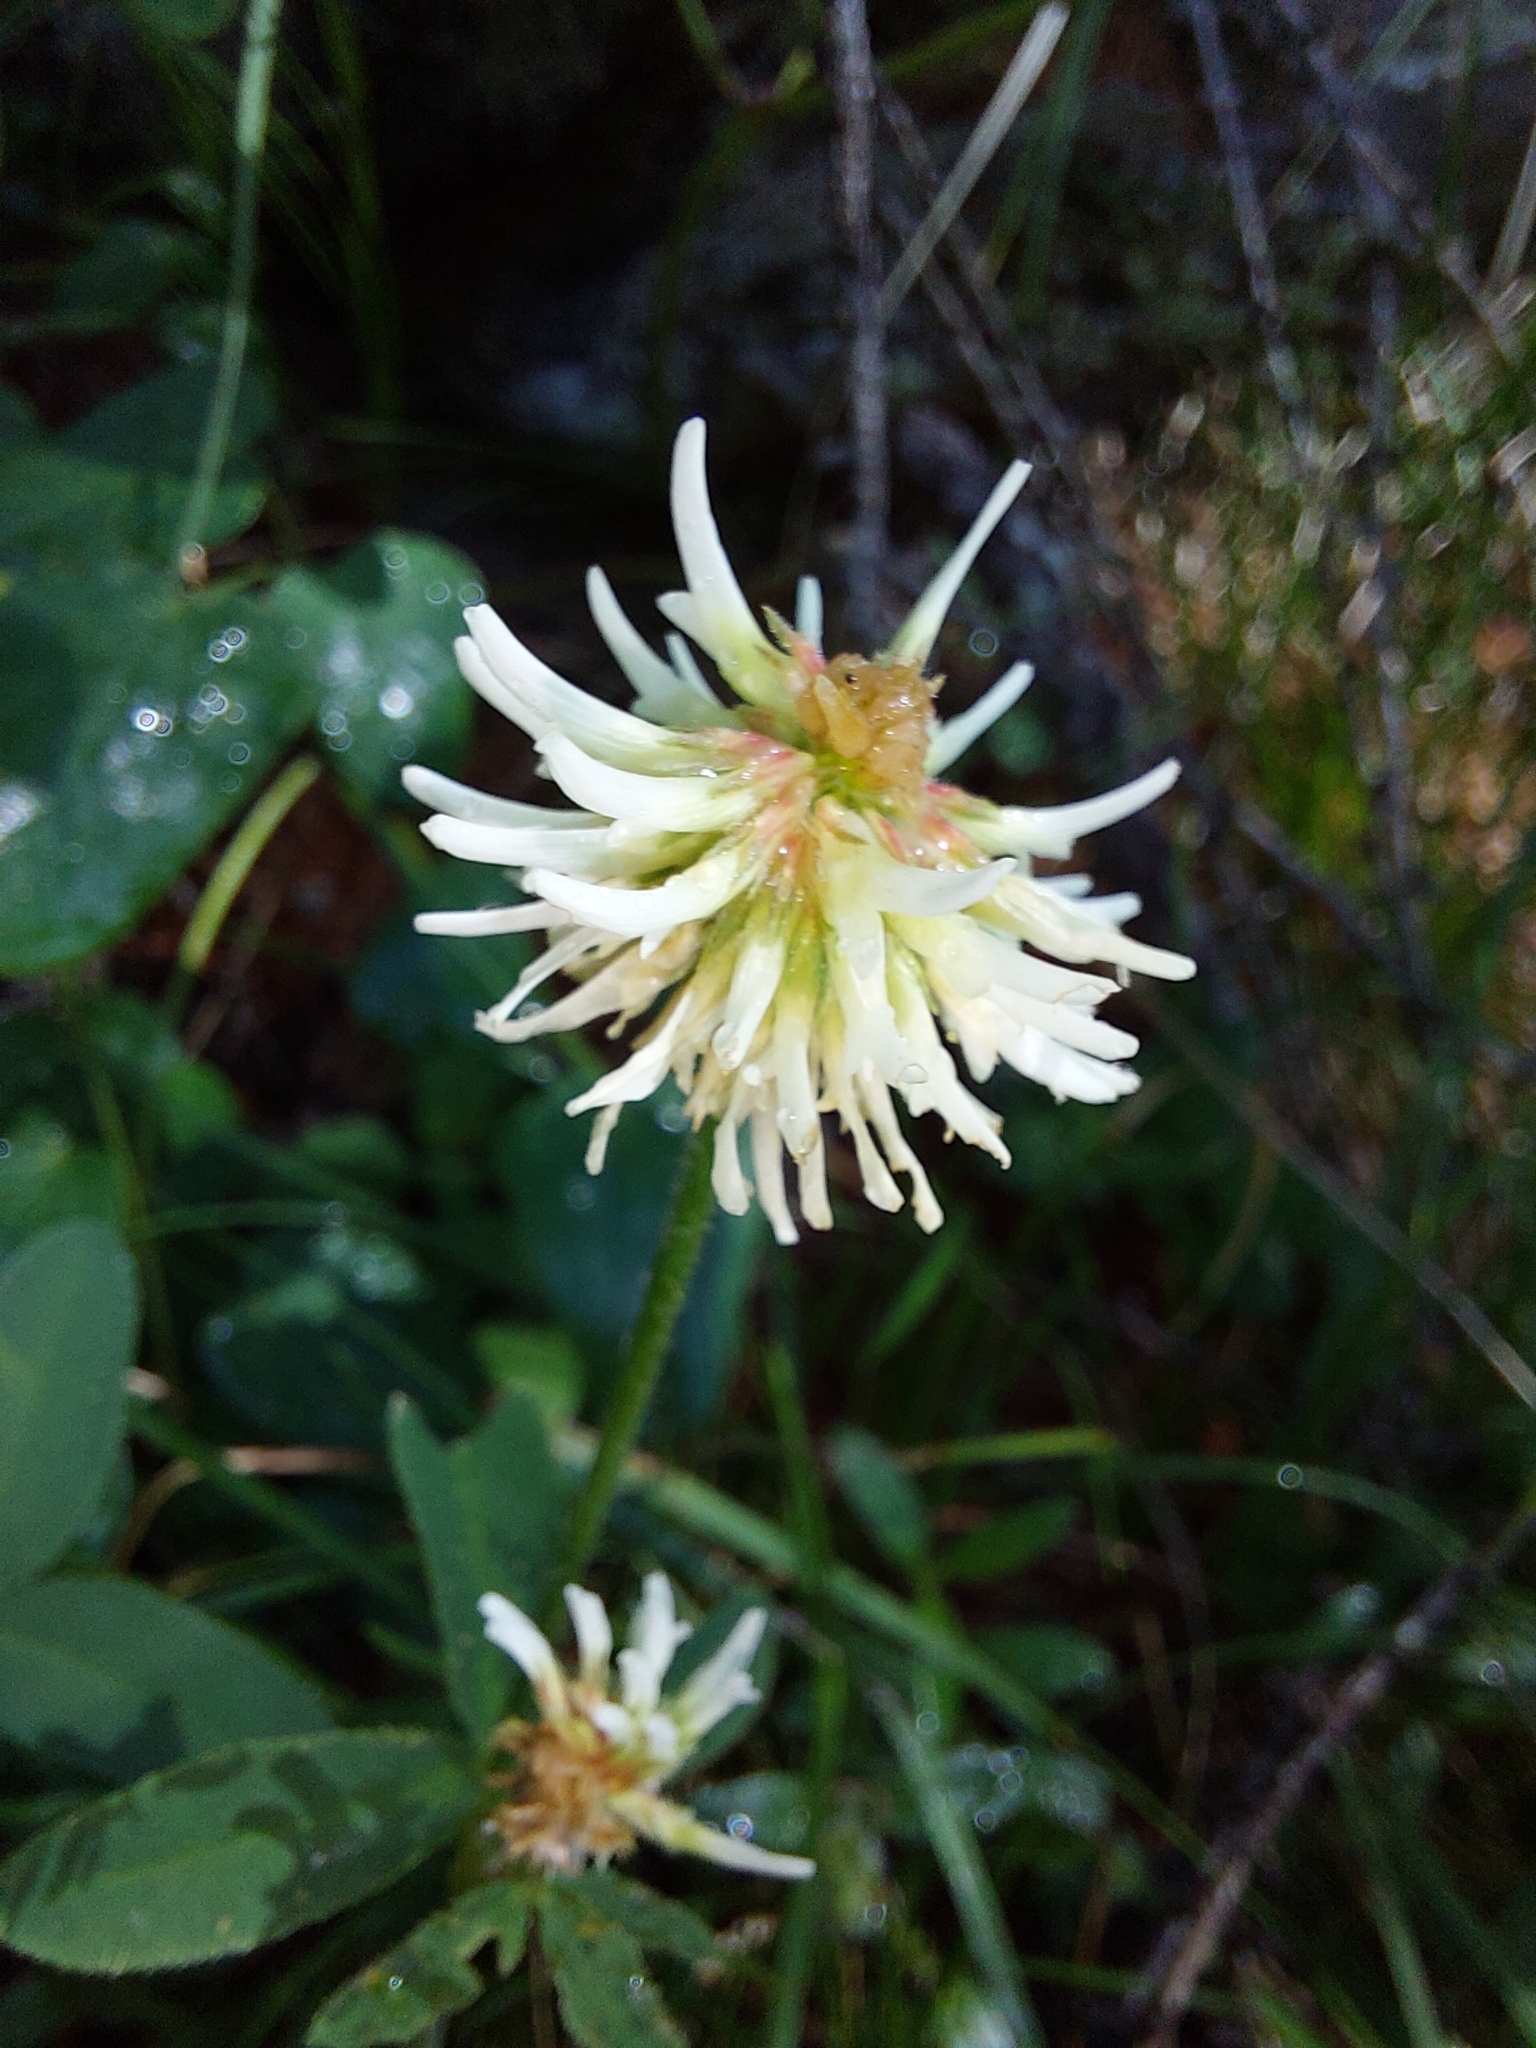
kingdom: Plantae
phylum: Tracheophyta
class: Magnoliopsida
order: Fabales
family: Fabaceae
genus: Trifolium
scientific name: Trifolium montanum
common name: Mountain clover
